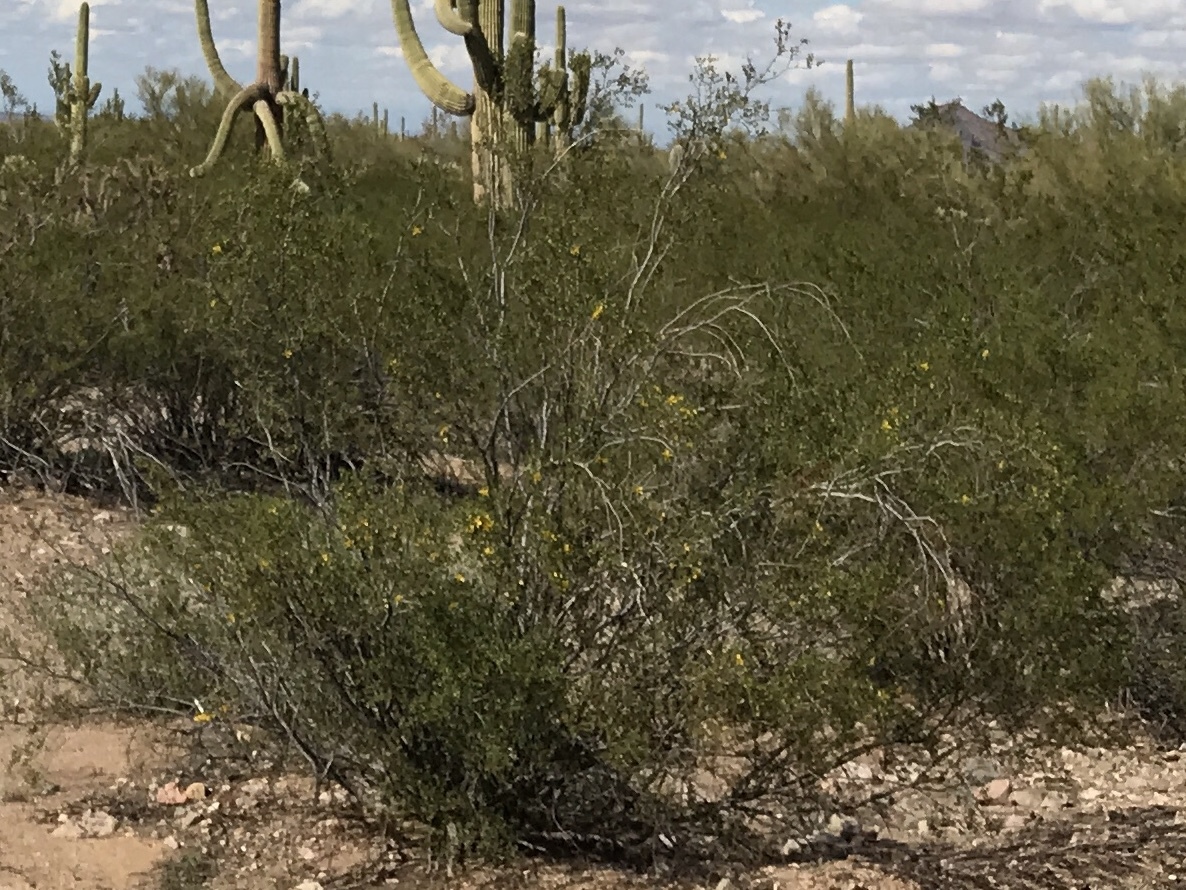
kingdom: Plantae
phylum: Tracheophyta
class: Magnoliopsida
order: Zygophyllales
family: Zygophyllaceae
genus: Larrea
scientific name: Larrea tridentata
